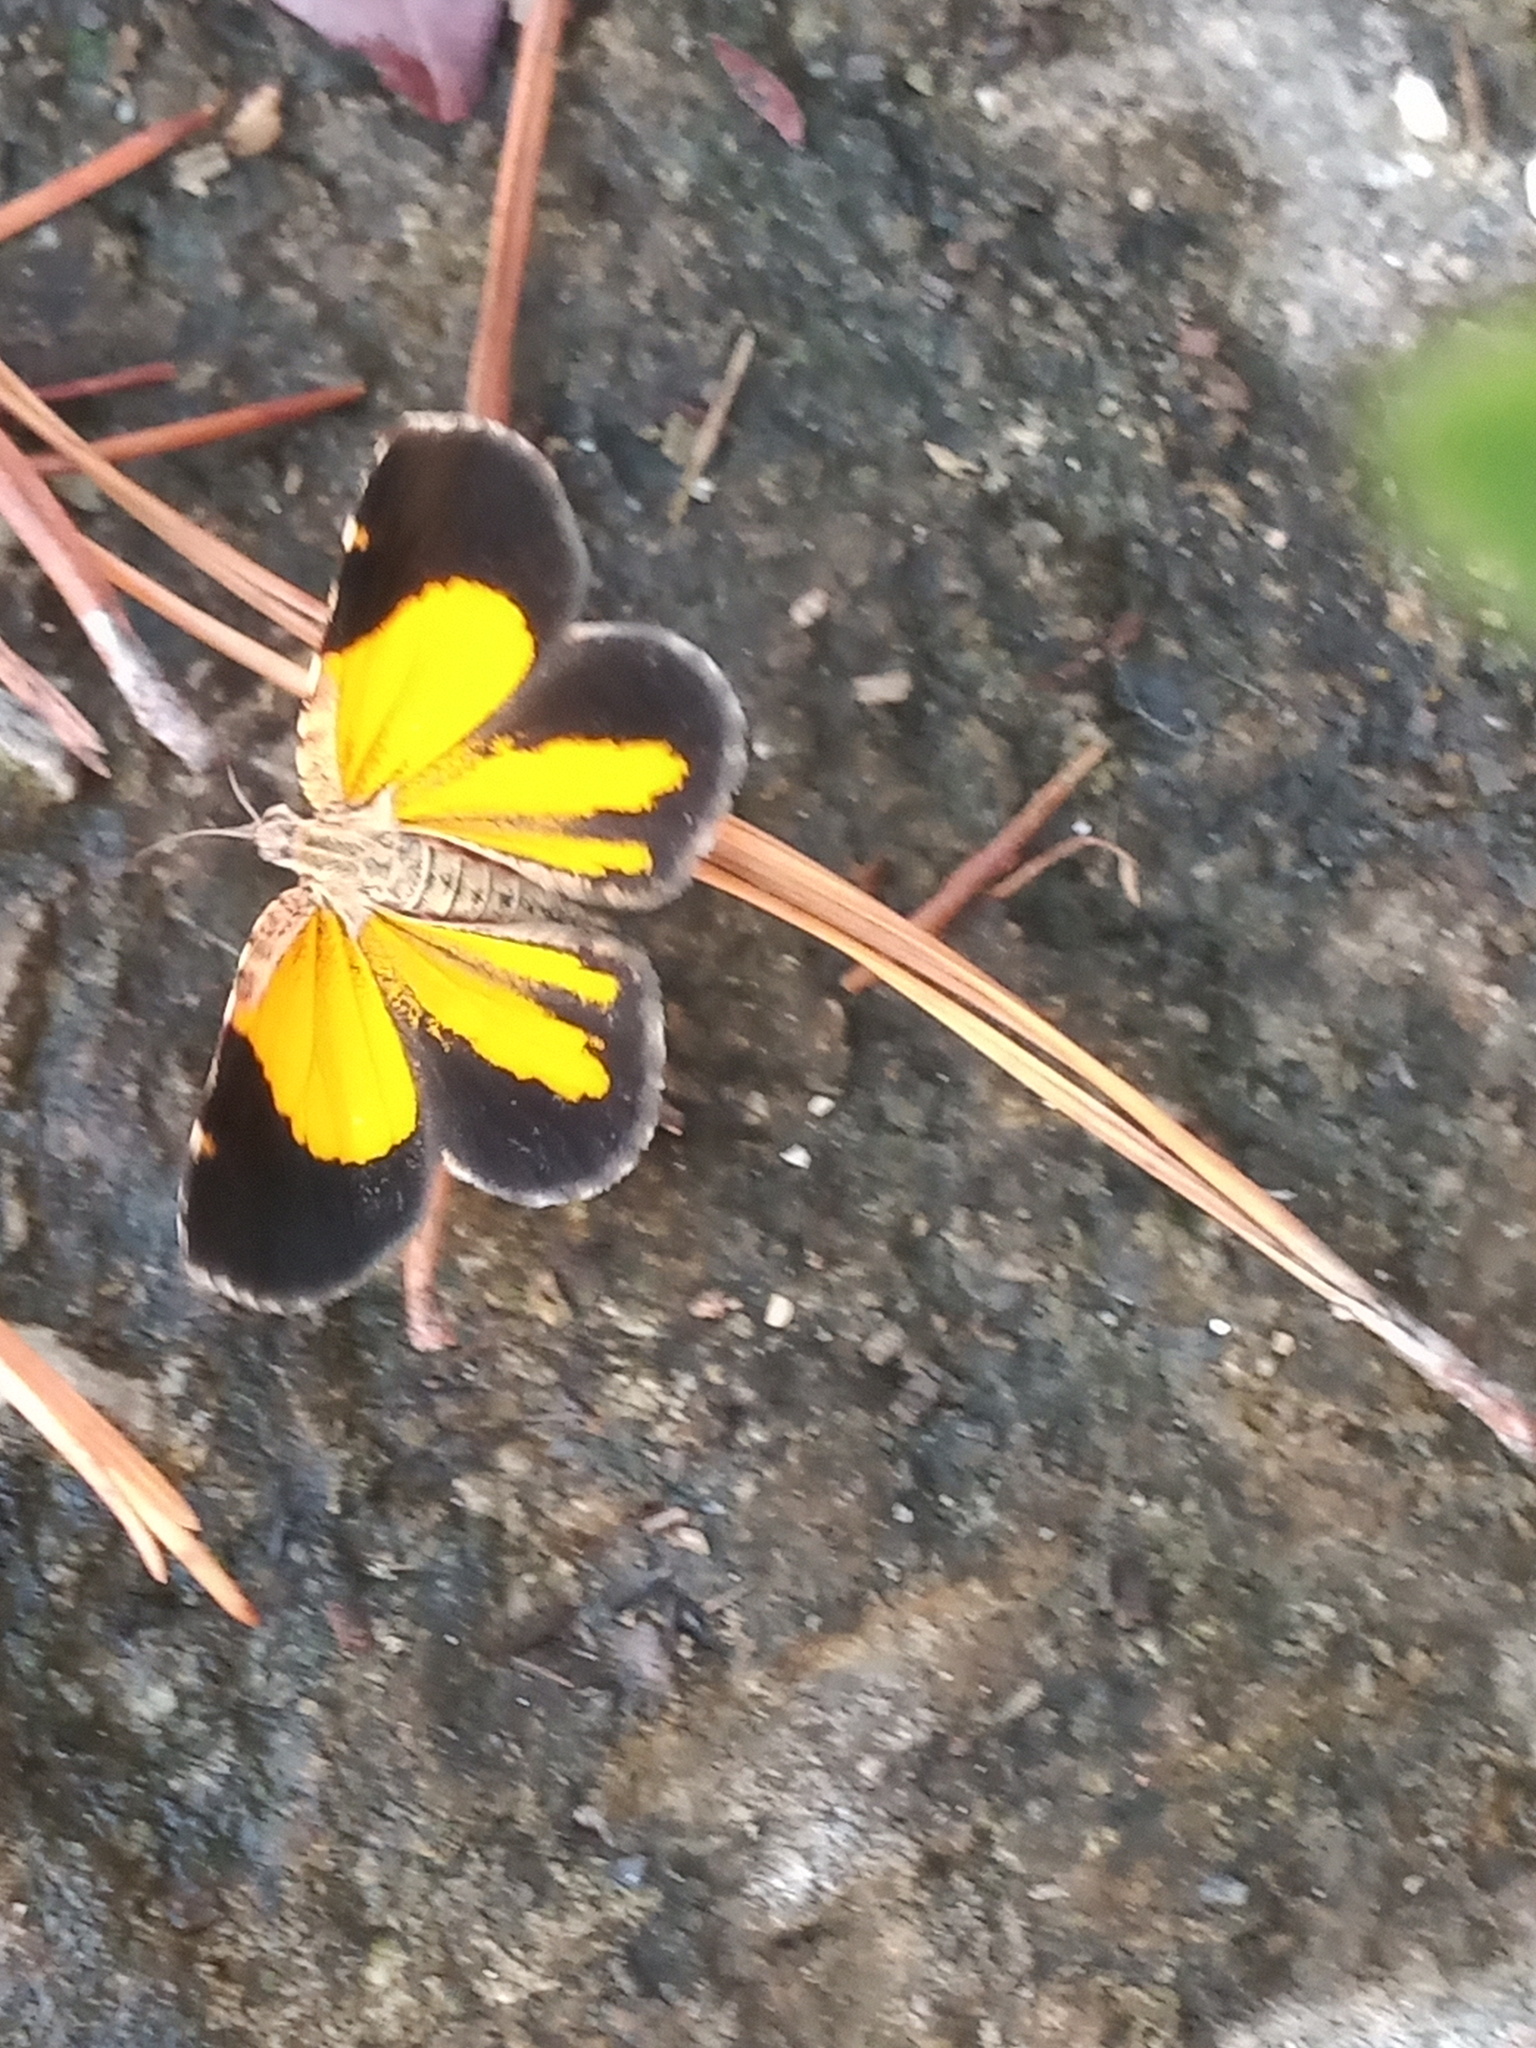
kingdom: Animalia
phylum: Arthropoda
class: Insecta
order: Lepidoptera
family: Geometridae
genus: Heterusia
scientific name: Heterusia atalantata
